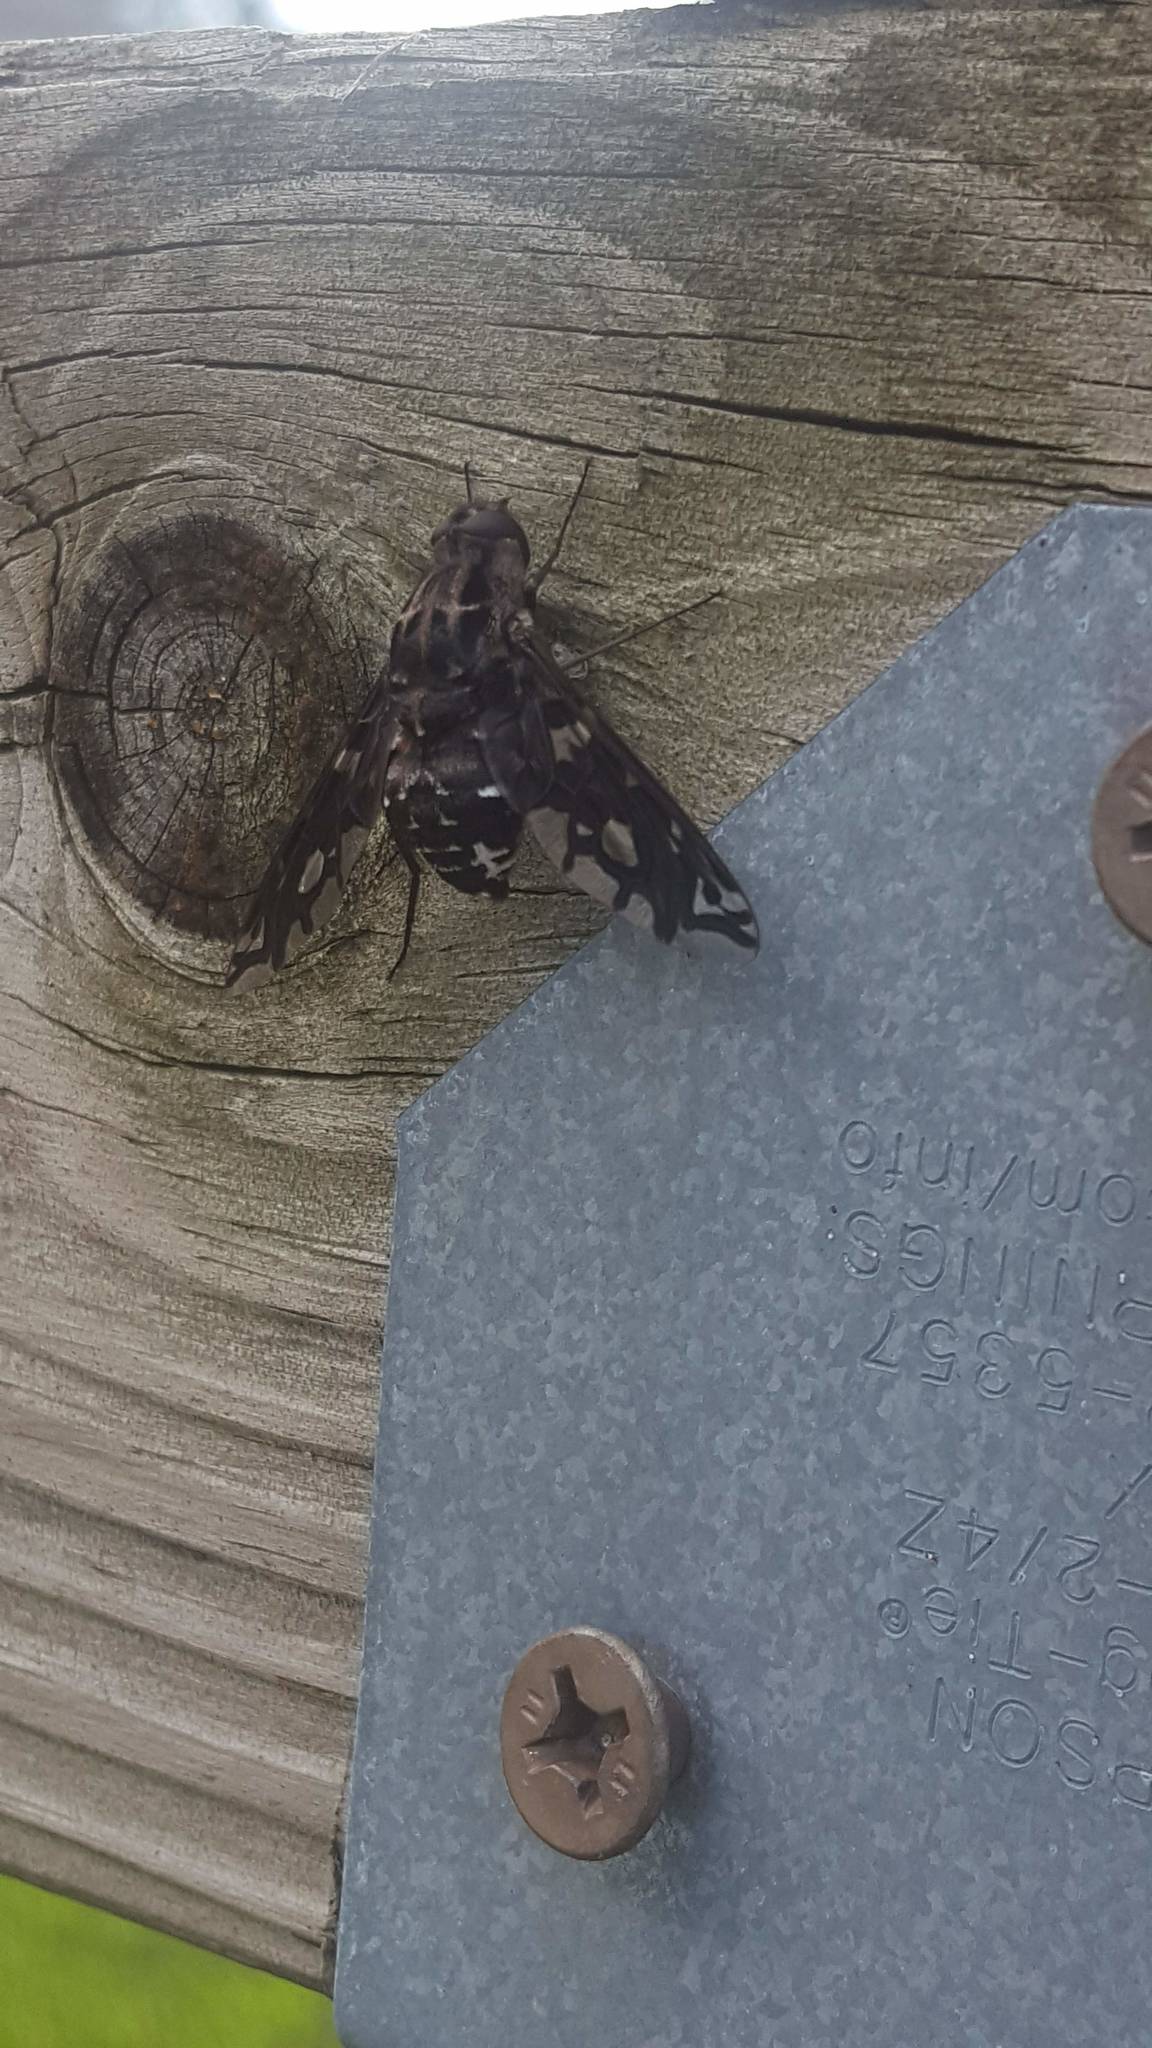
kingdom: Animalia
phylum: Arthropoda
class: Insecta
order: Diptera
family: Bombyliidae
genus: Xenox
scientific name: Xenox tigrinus
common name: Tiger bee fly
